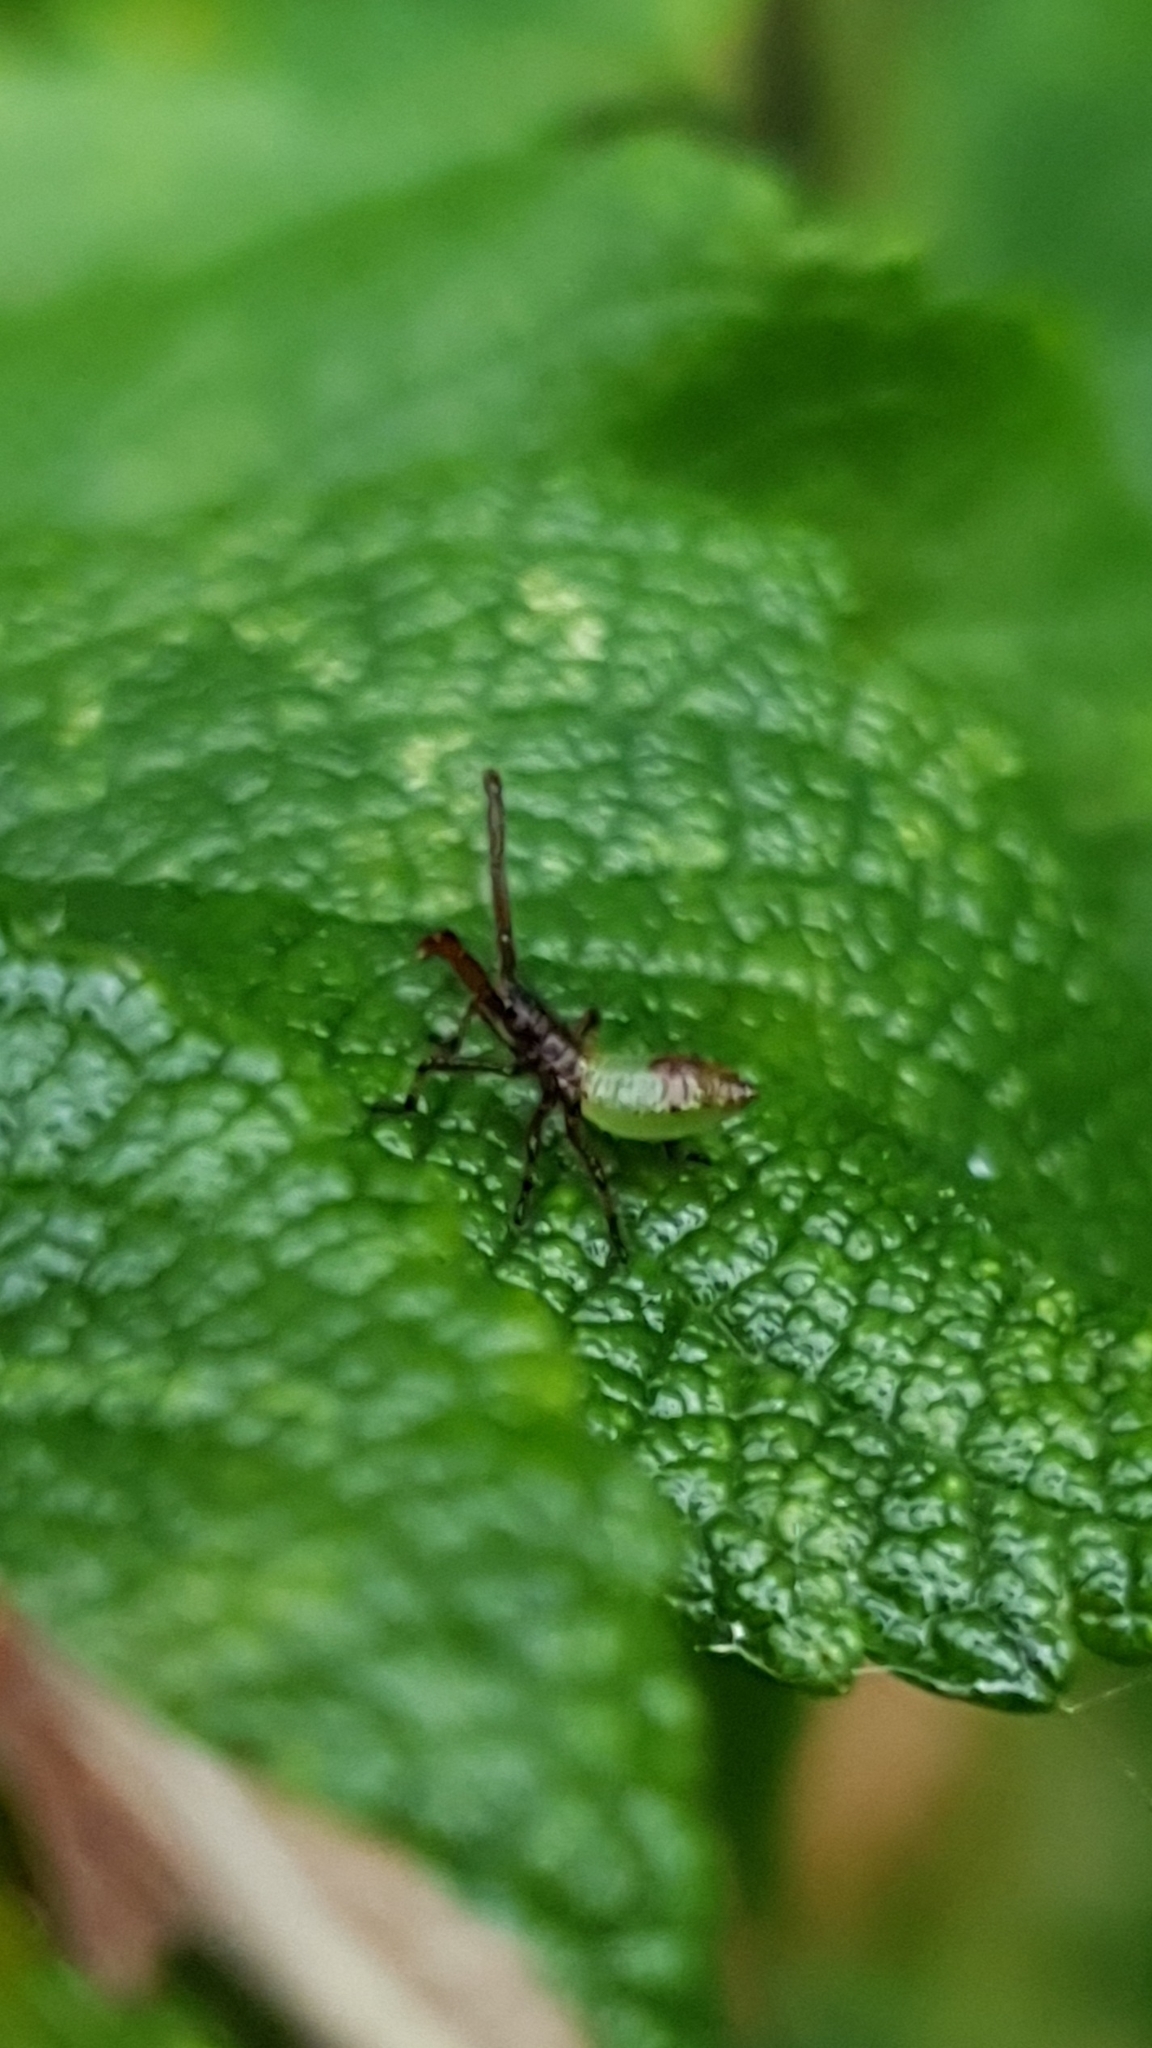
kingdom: Animalia
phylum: Arthropoda
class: Insecta
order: Hemiptera
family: Coreidae
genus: Gonocerus
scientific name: Gonocerus acuteangulatus
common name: Box bug
